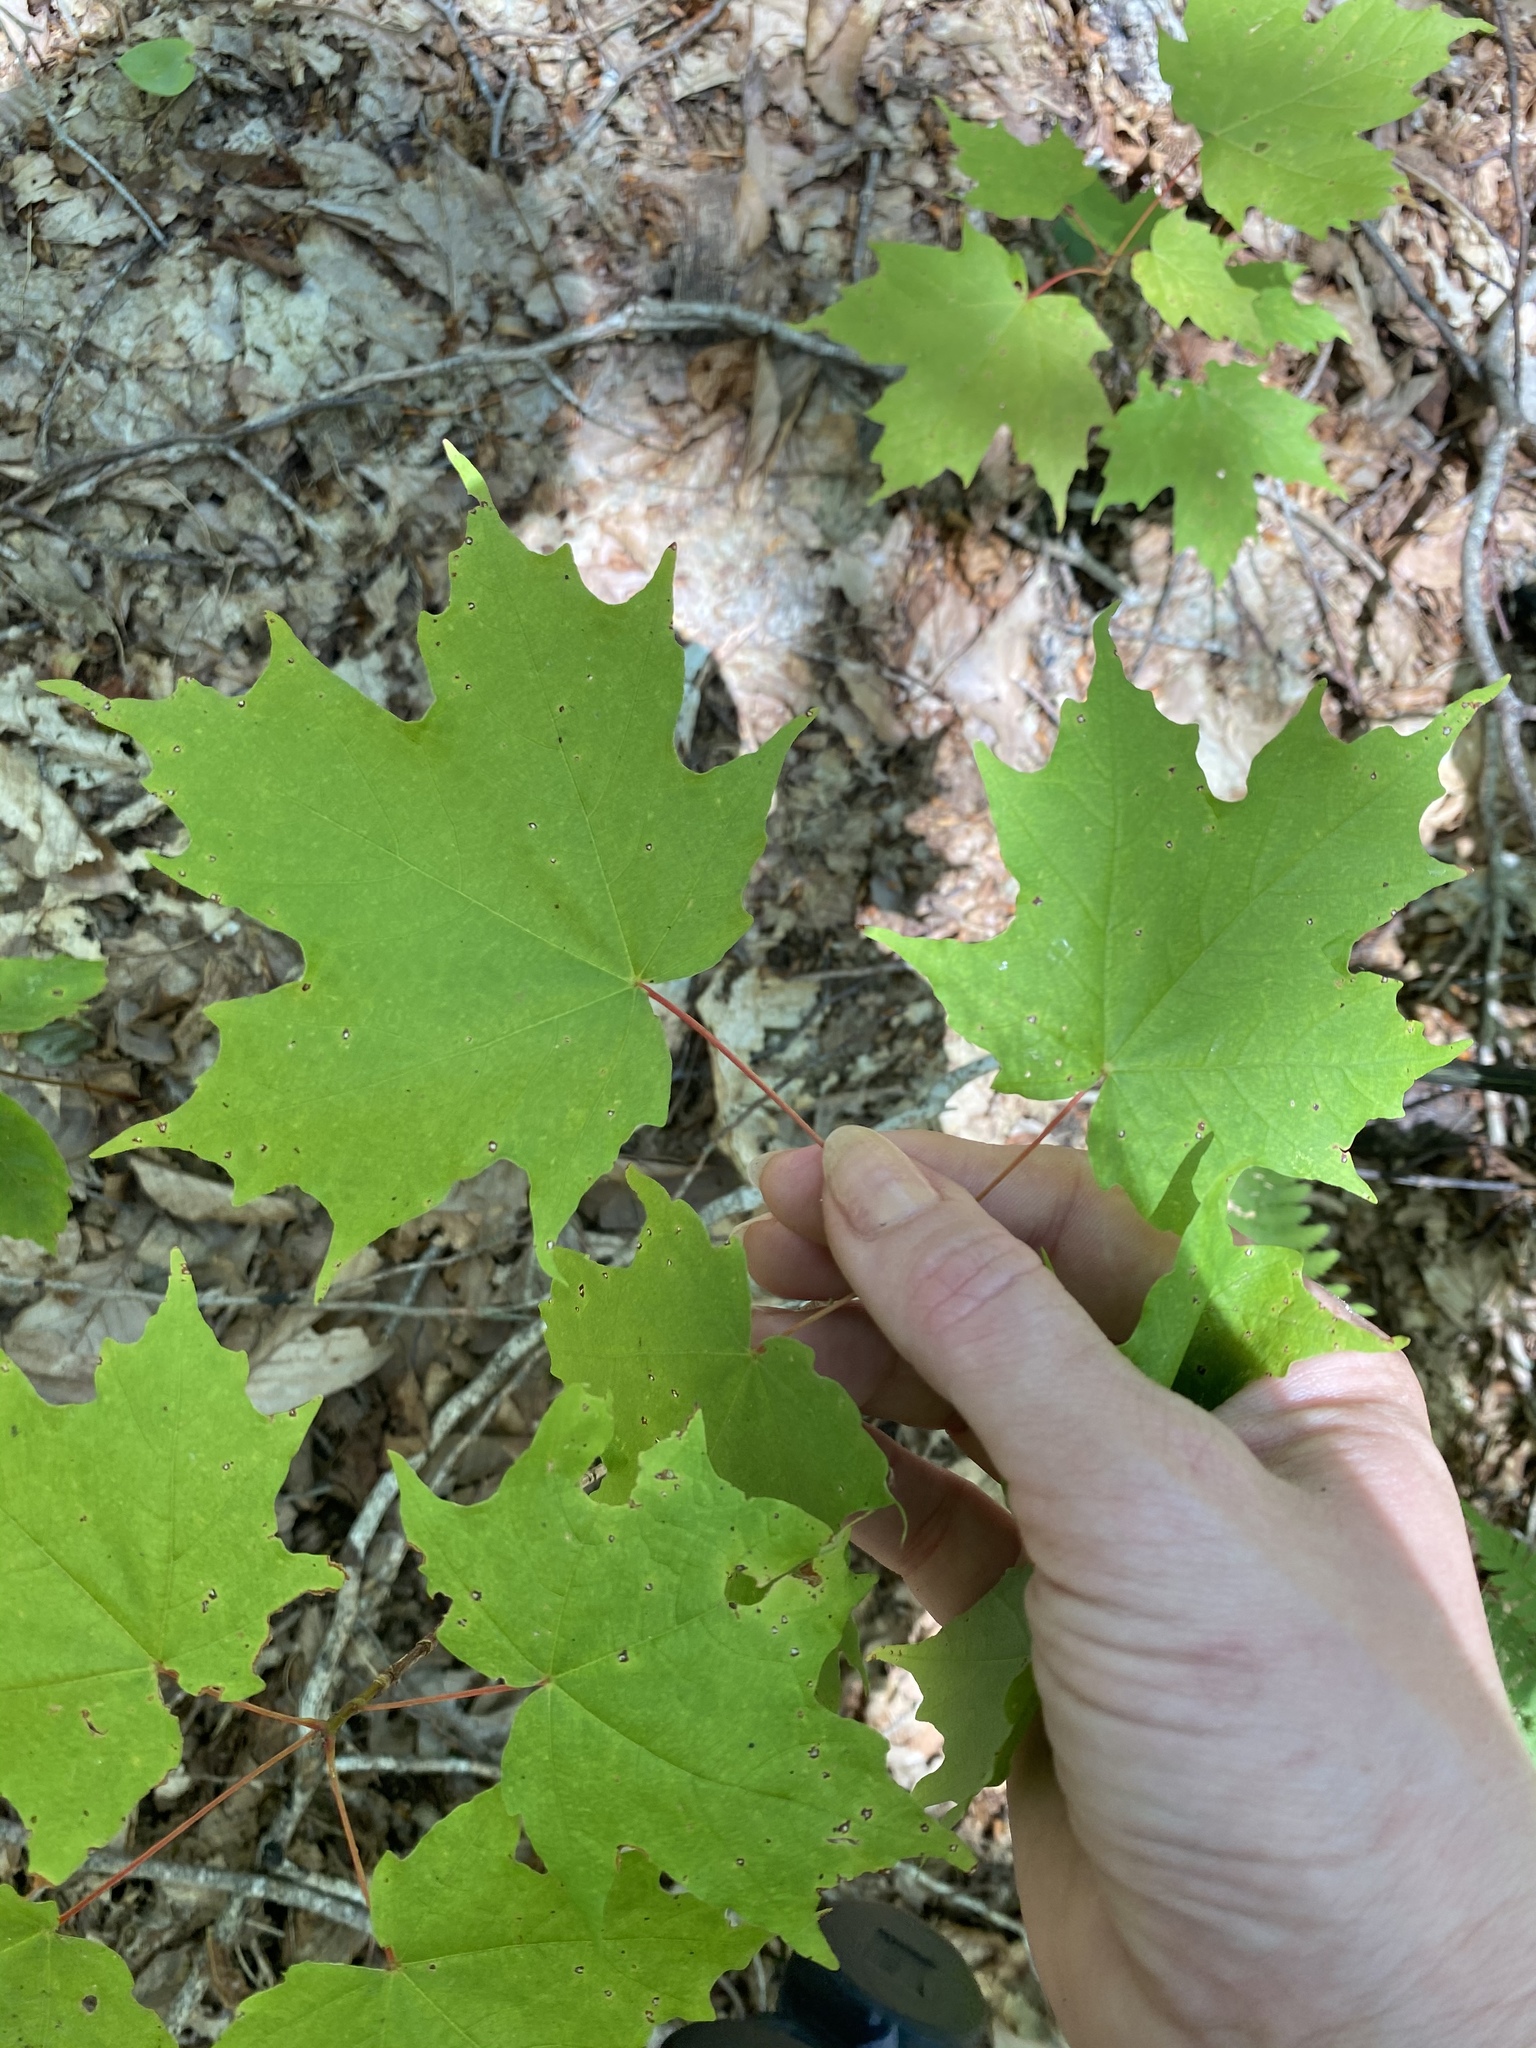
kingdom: Plantae
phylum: Tracheophyta
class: Magnoliopsida
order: Sapindales
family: Sapindaceae
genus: Acer
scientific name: Acer saccharum
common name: Sugar maple
